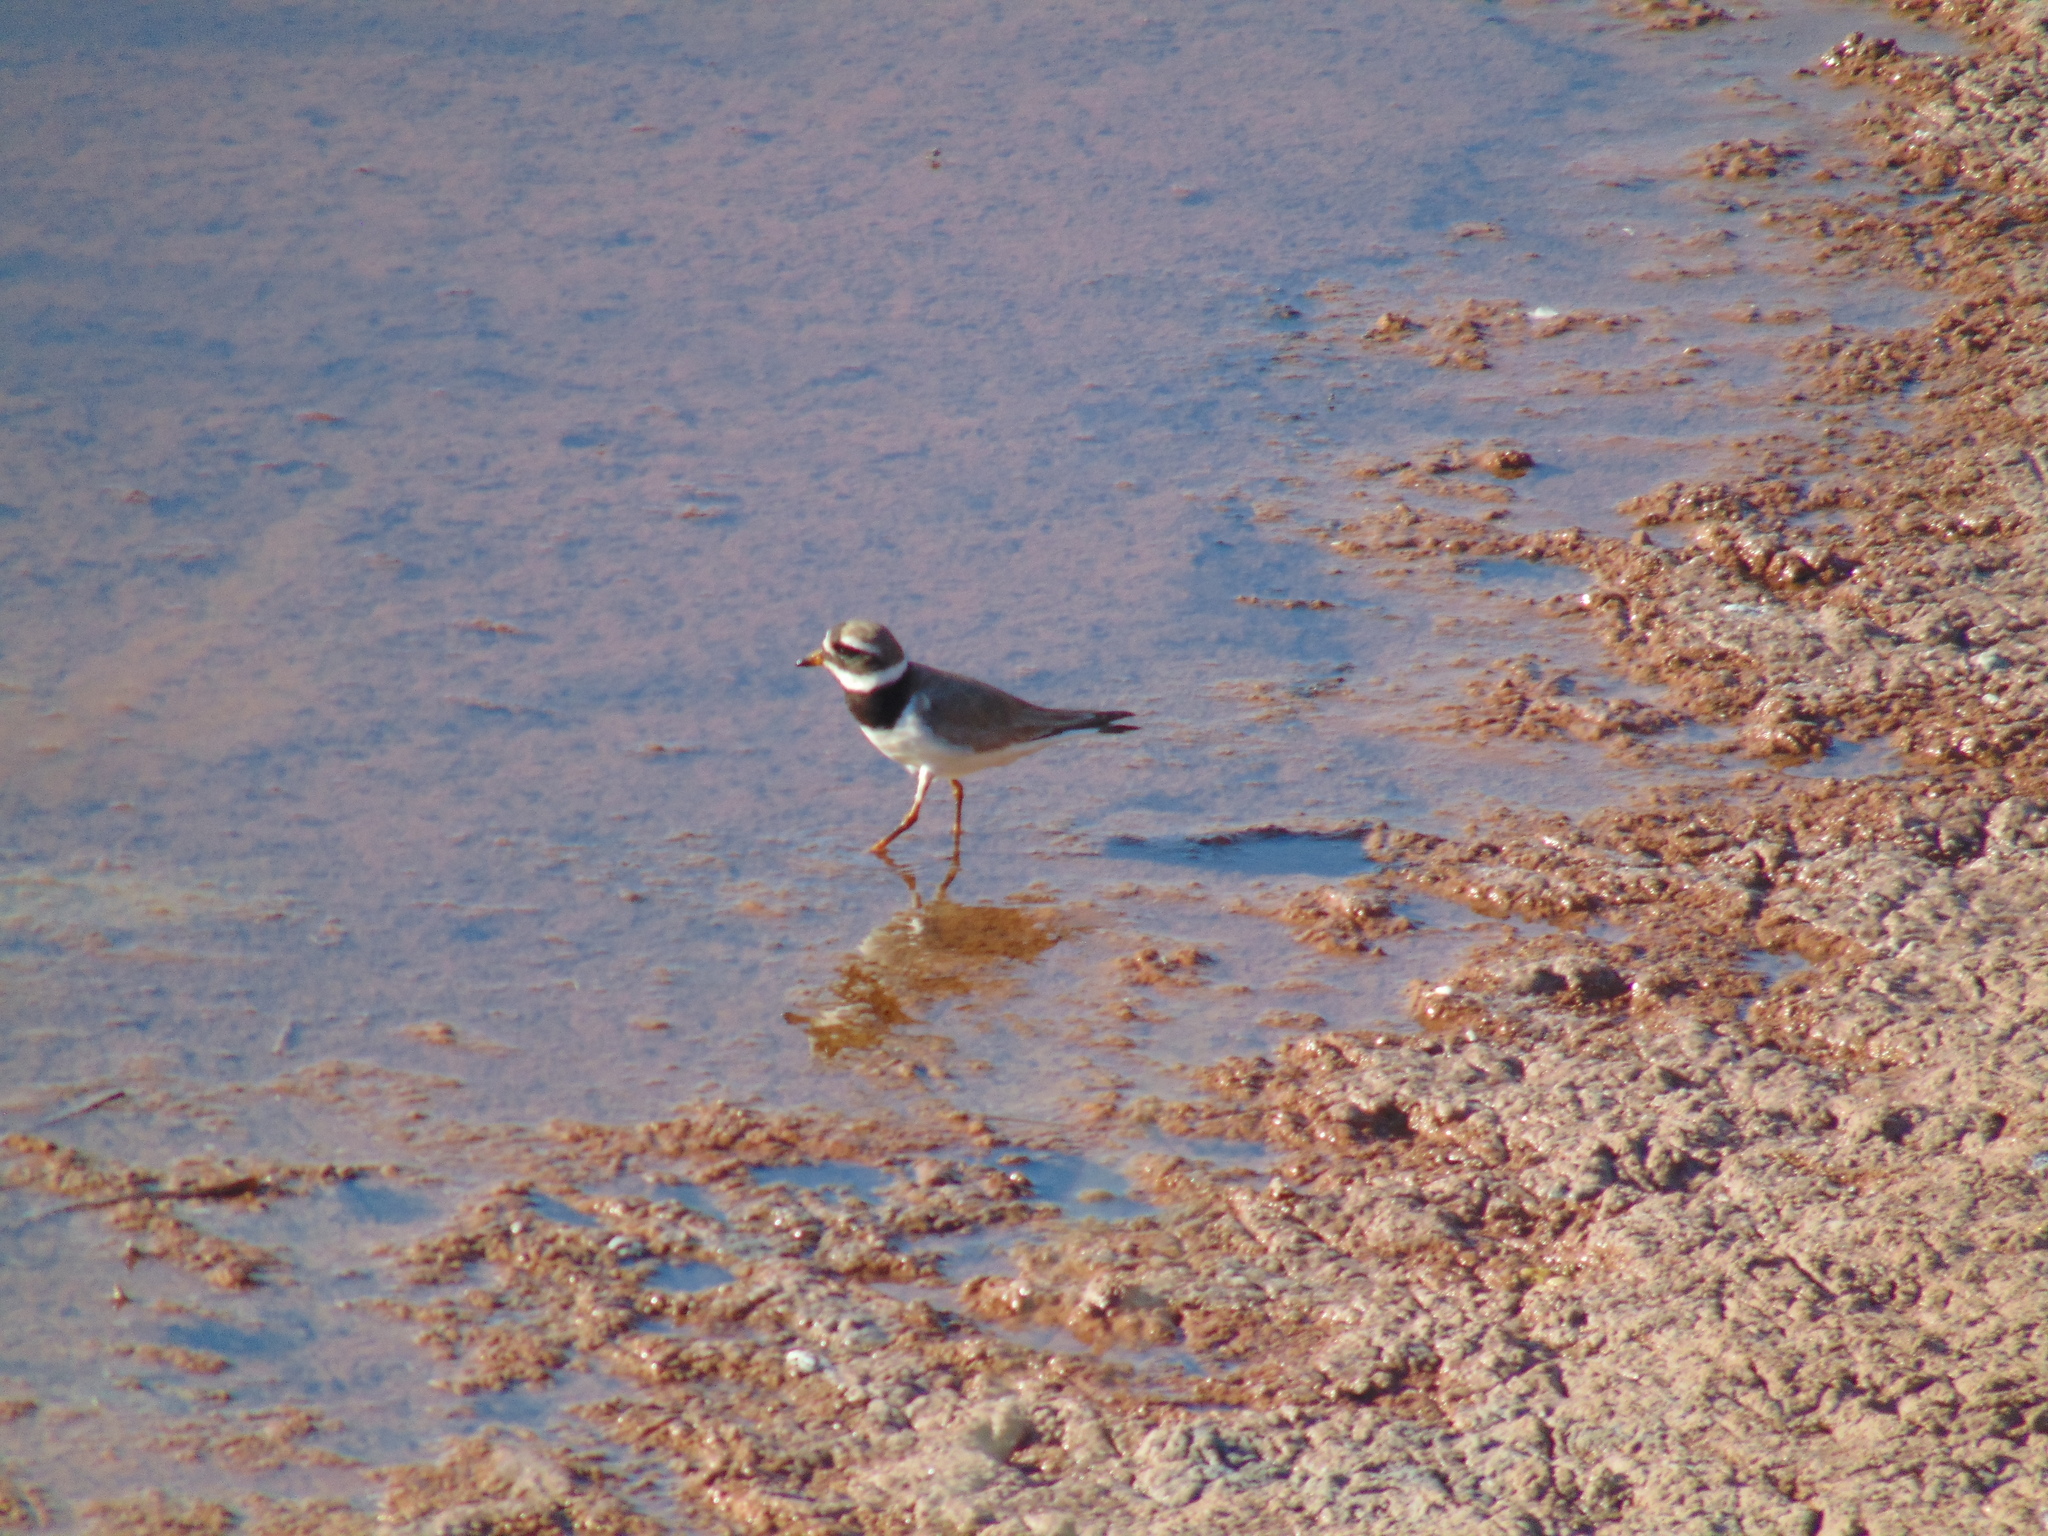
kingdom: Animalia
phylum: Chordata
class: Aves
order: Charadriiformes
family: Charadriidae
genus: Charadrius
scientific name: Charadrius hiaticula
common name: Common ringed plover
